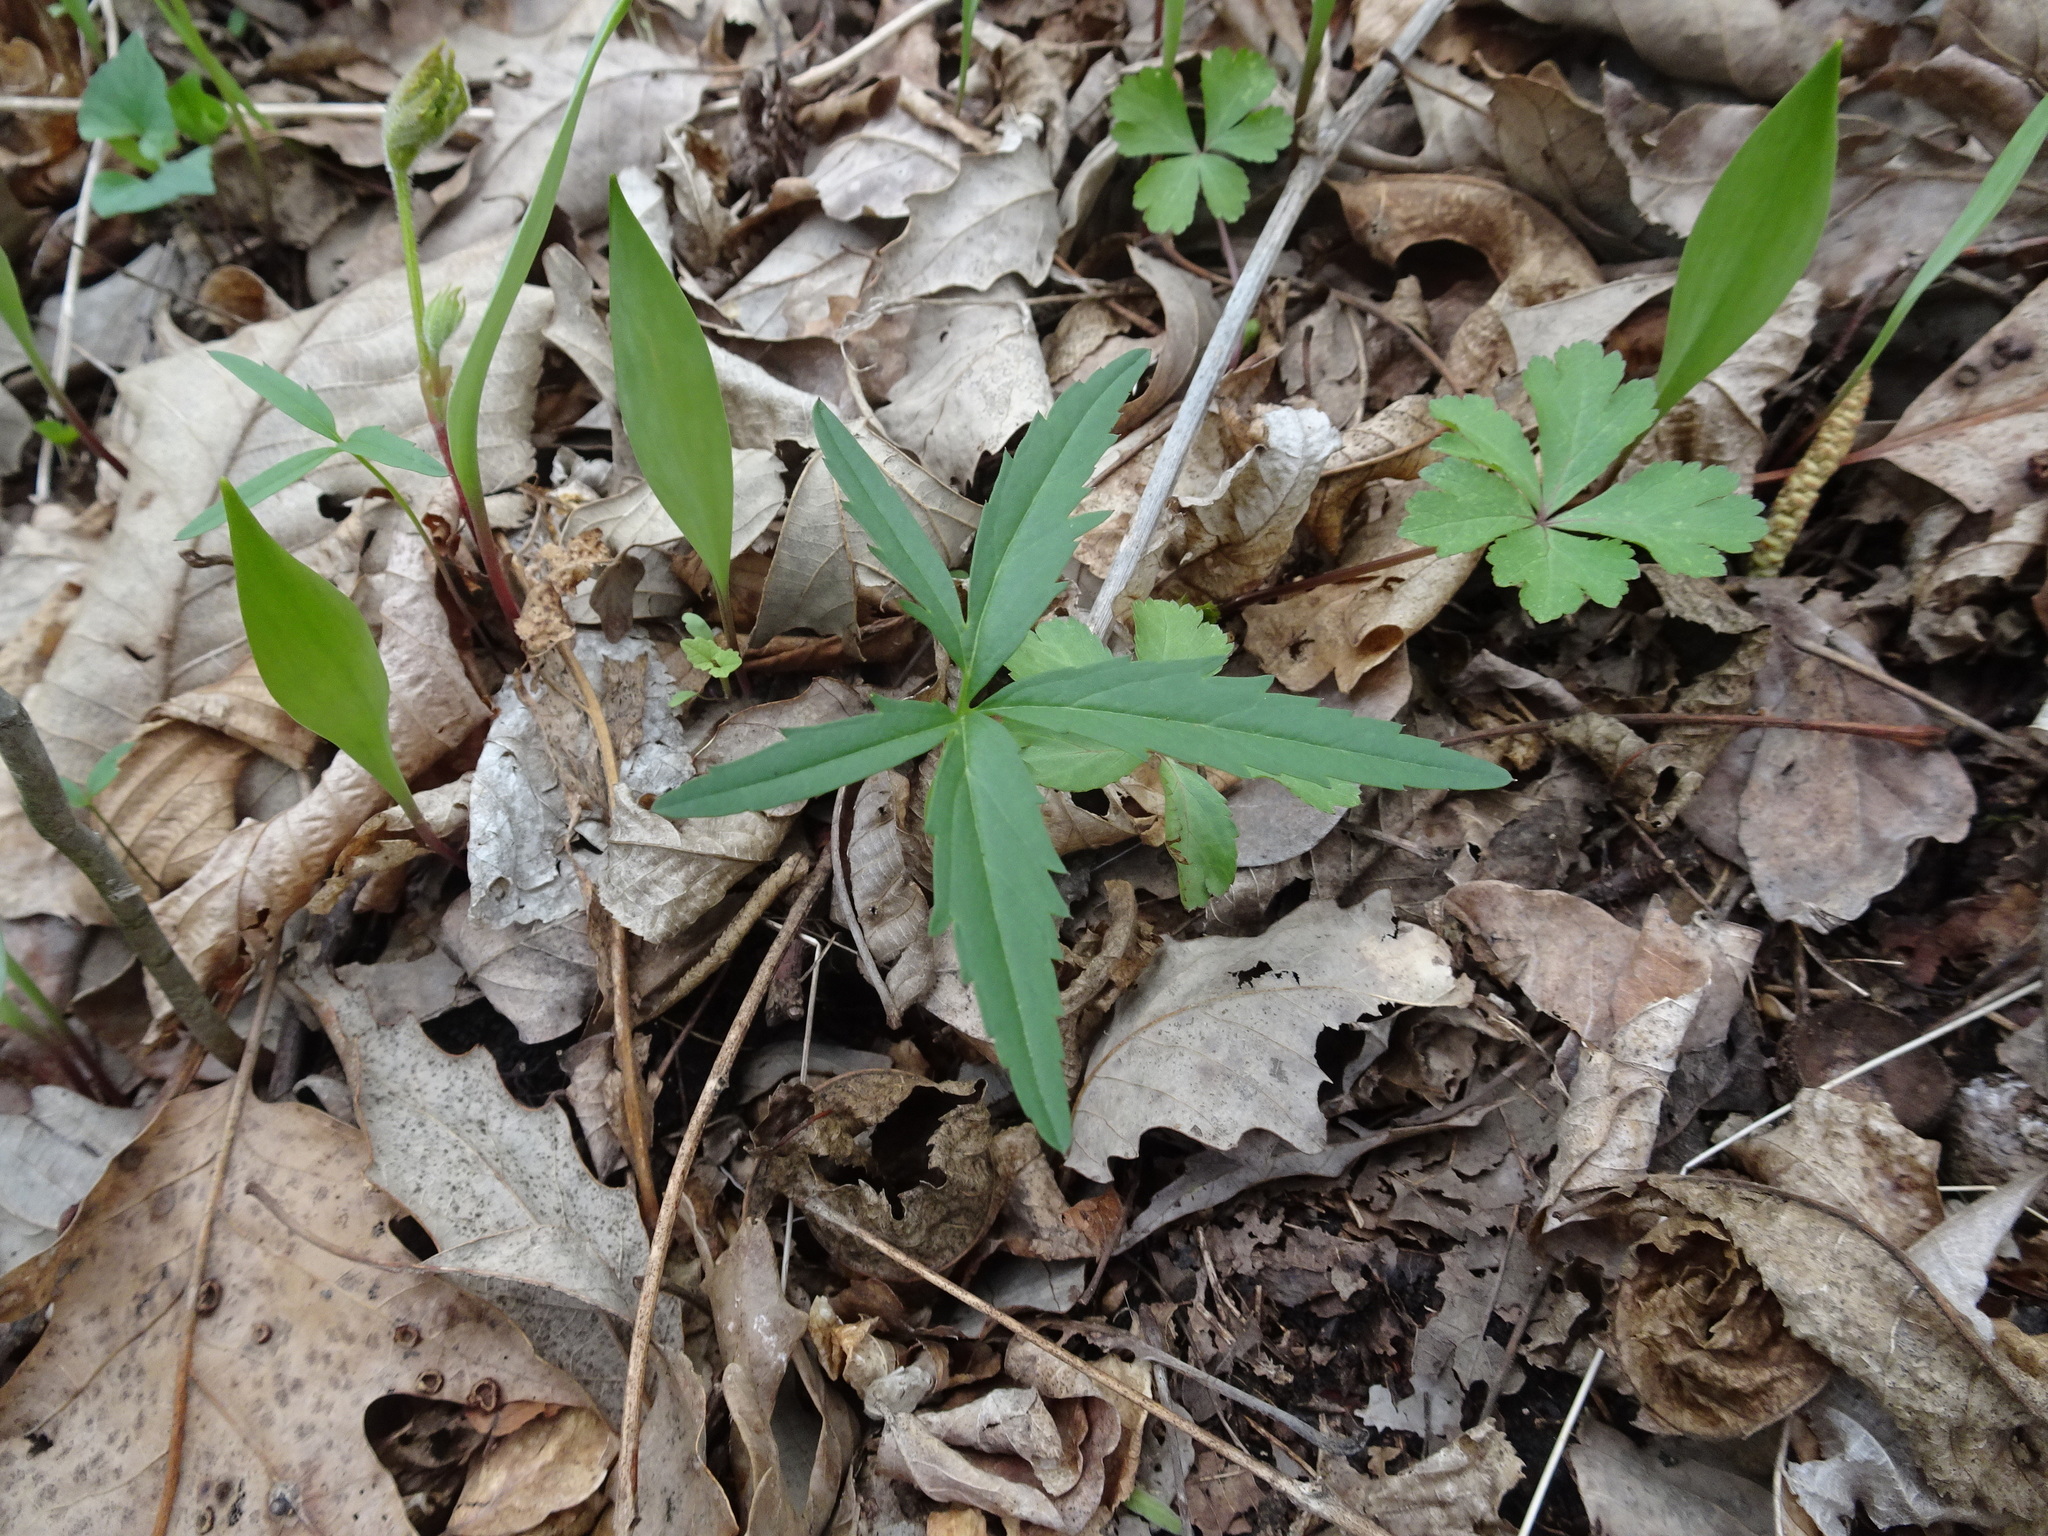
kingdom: Plantae
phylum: Tracheophyta
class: Magnoliopsida
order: Brassicales
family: Brassicaceae
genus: Cardamine
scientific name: Cardamine concatenata
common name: Cut-leaf toothcup
